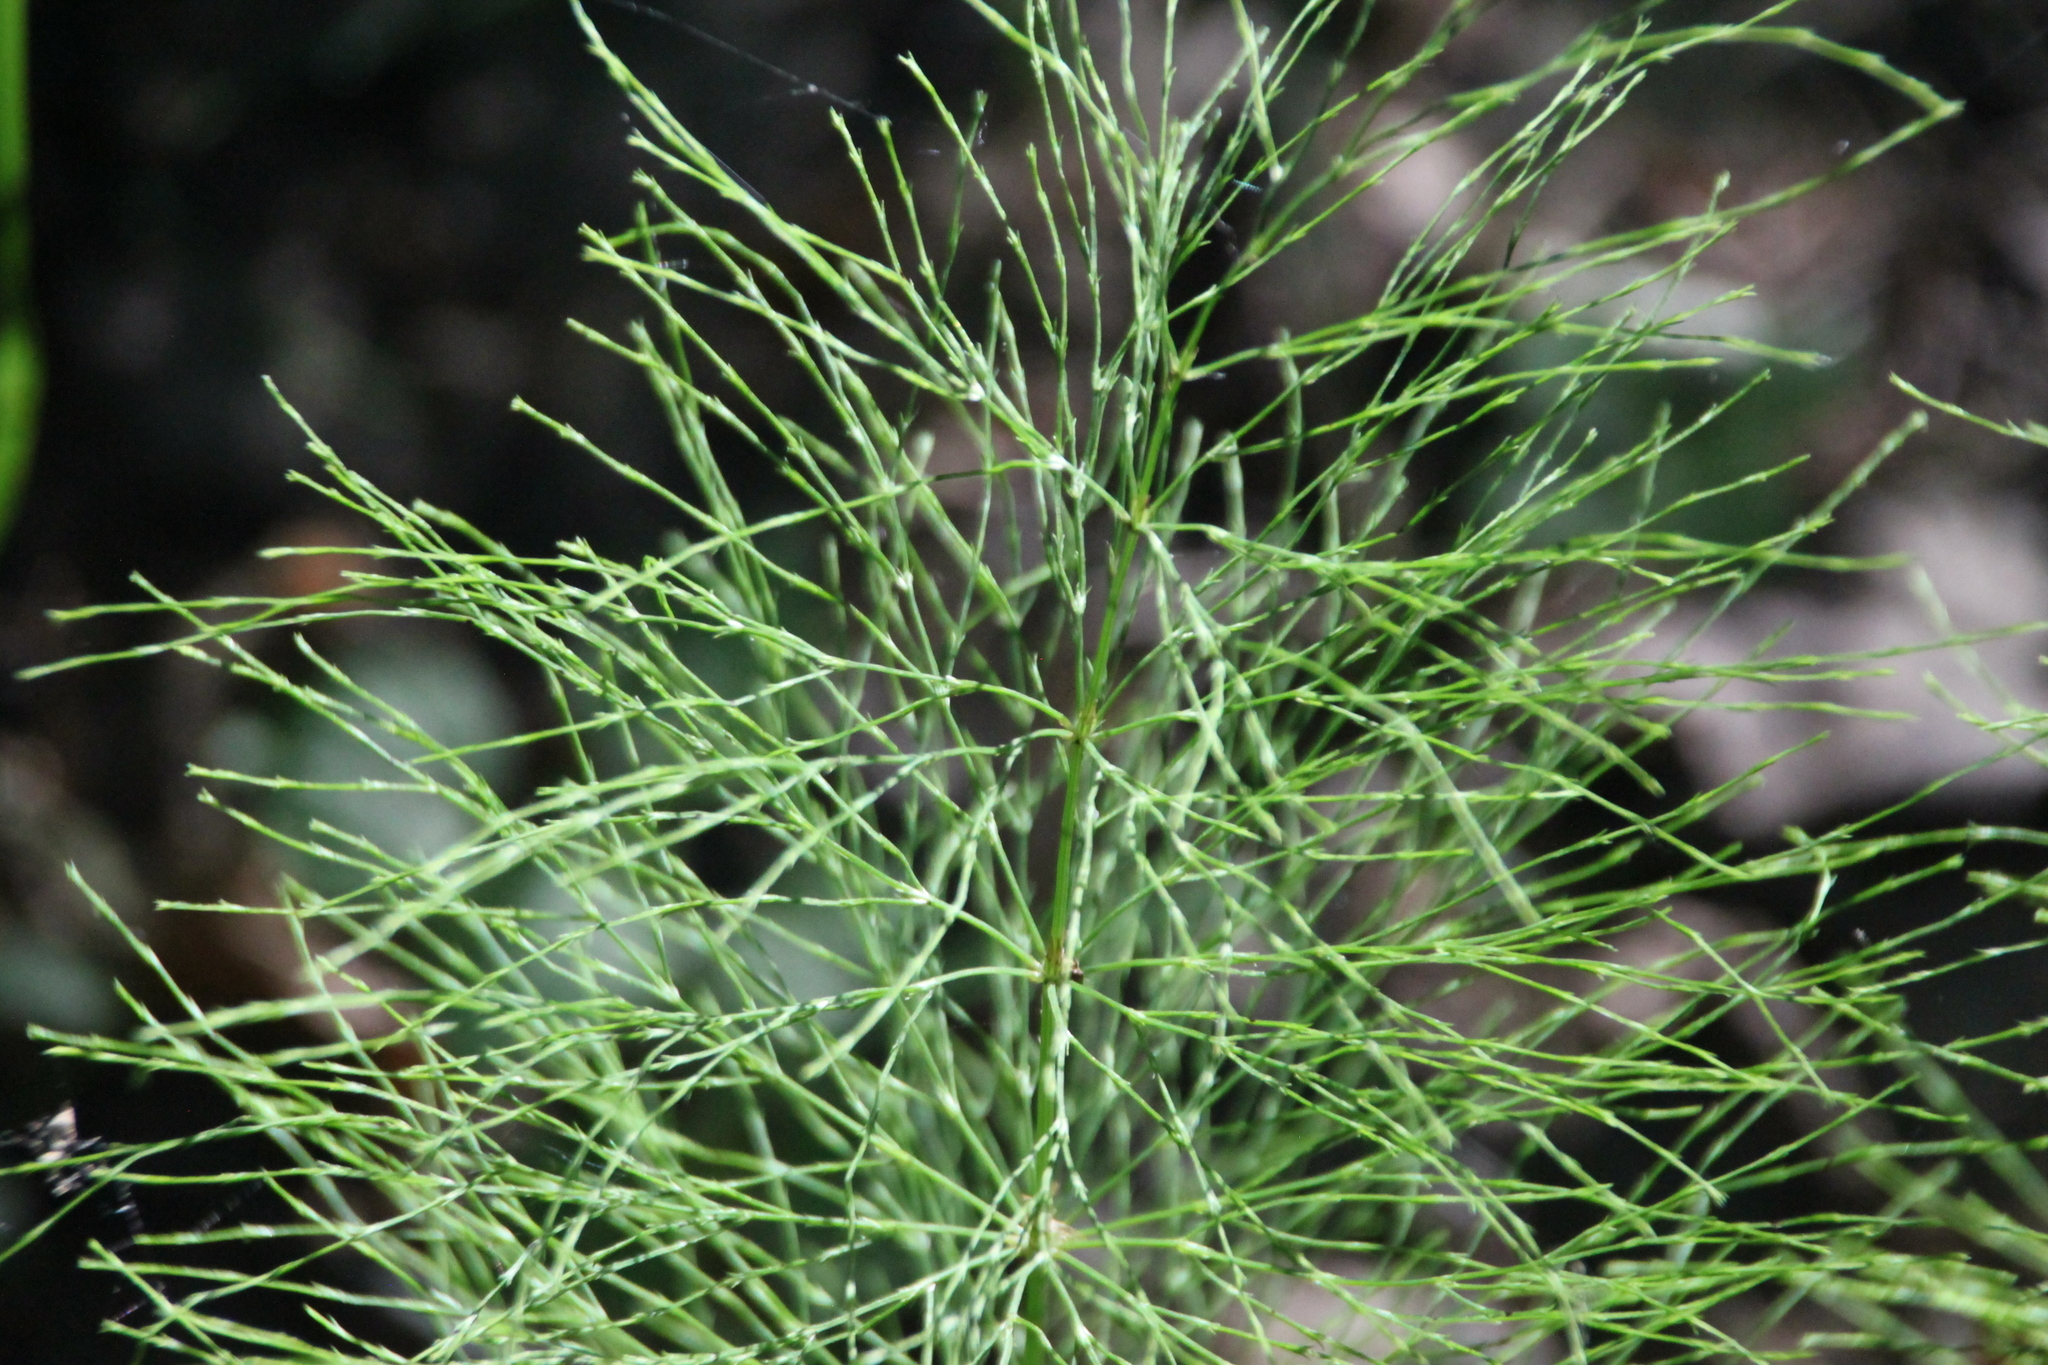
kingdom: Plantae
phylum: Tracheophyta
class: Polypodiopsida
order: Equisetales
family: Equisetaceae
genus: Equisetum
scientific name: Equisetum sylvaticum
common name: Wood horsetail
